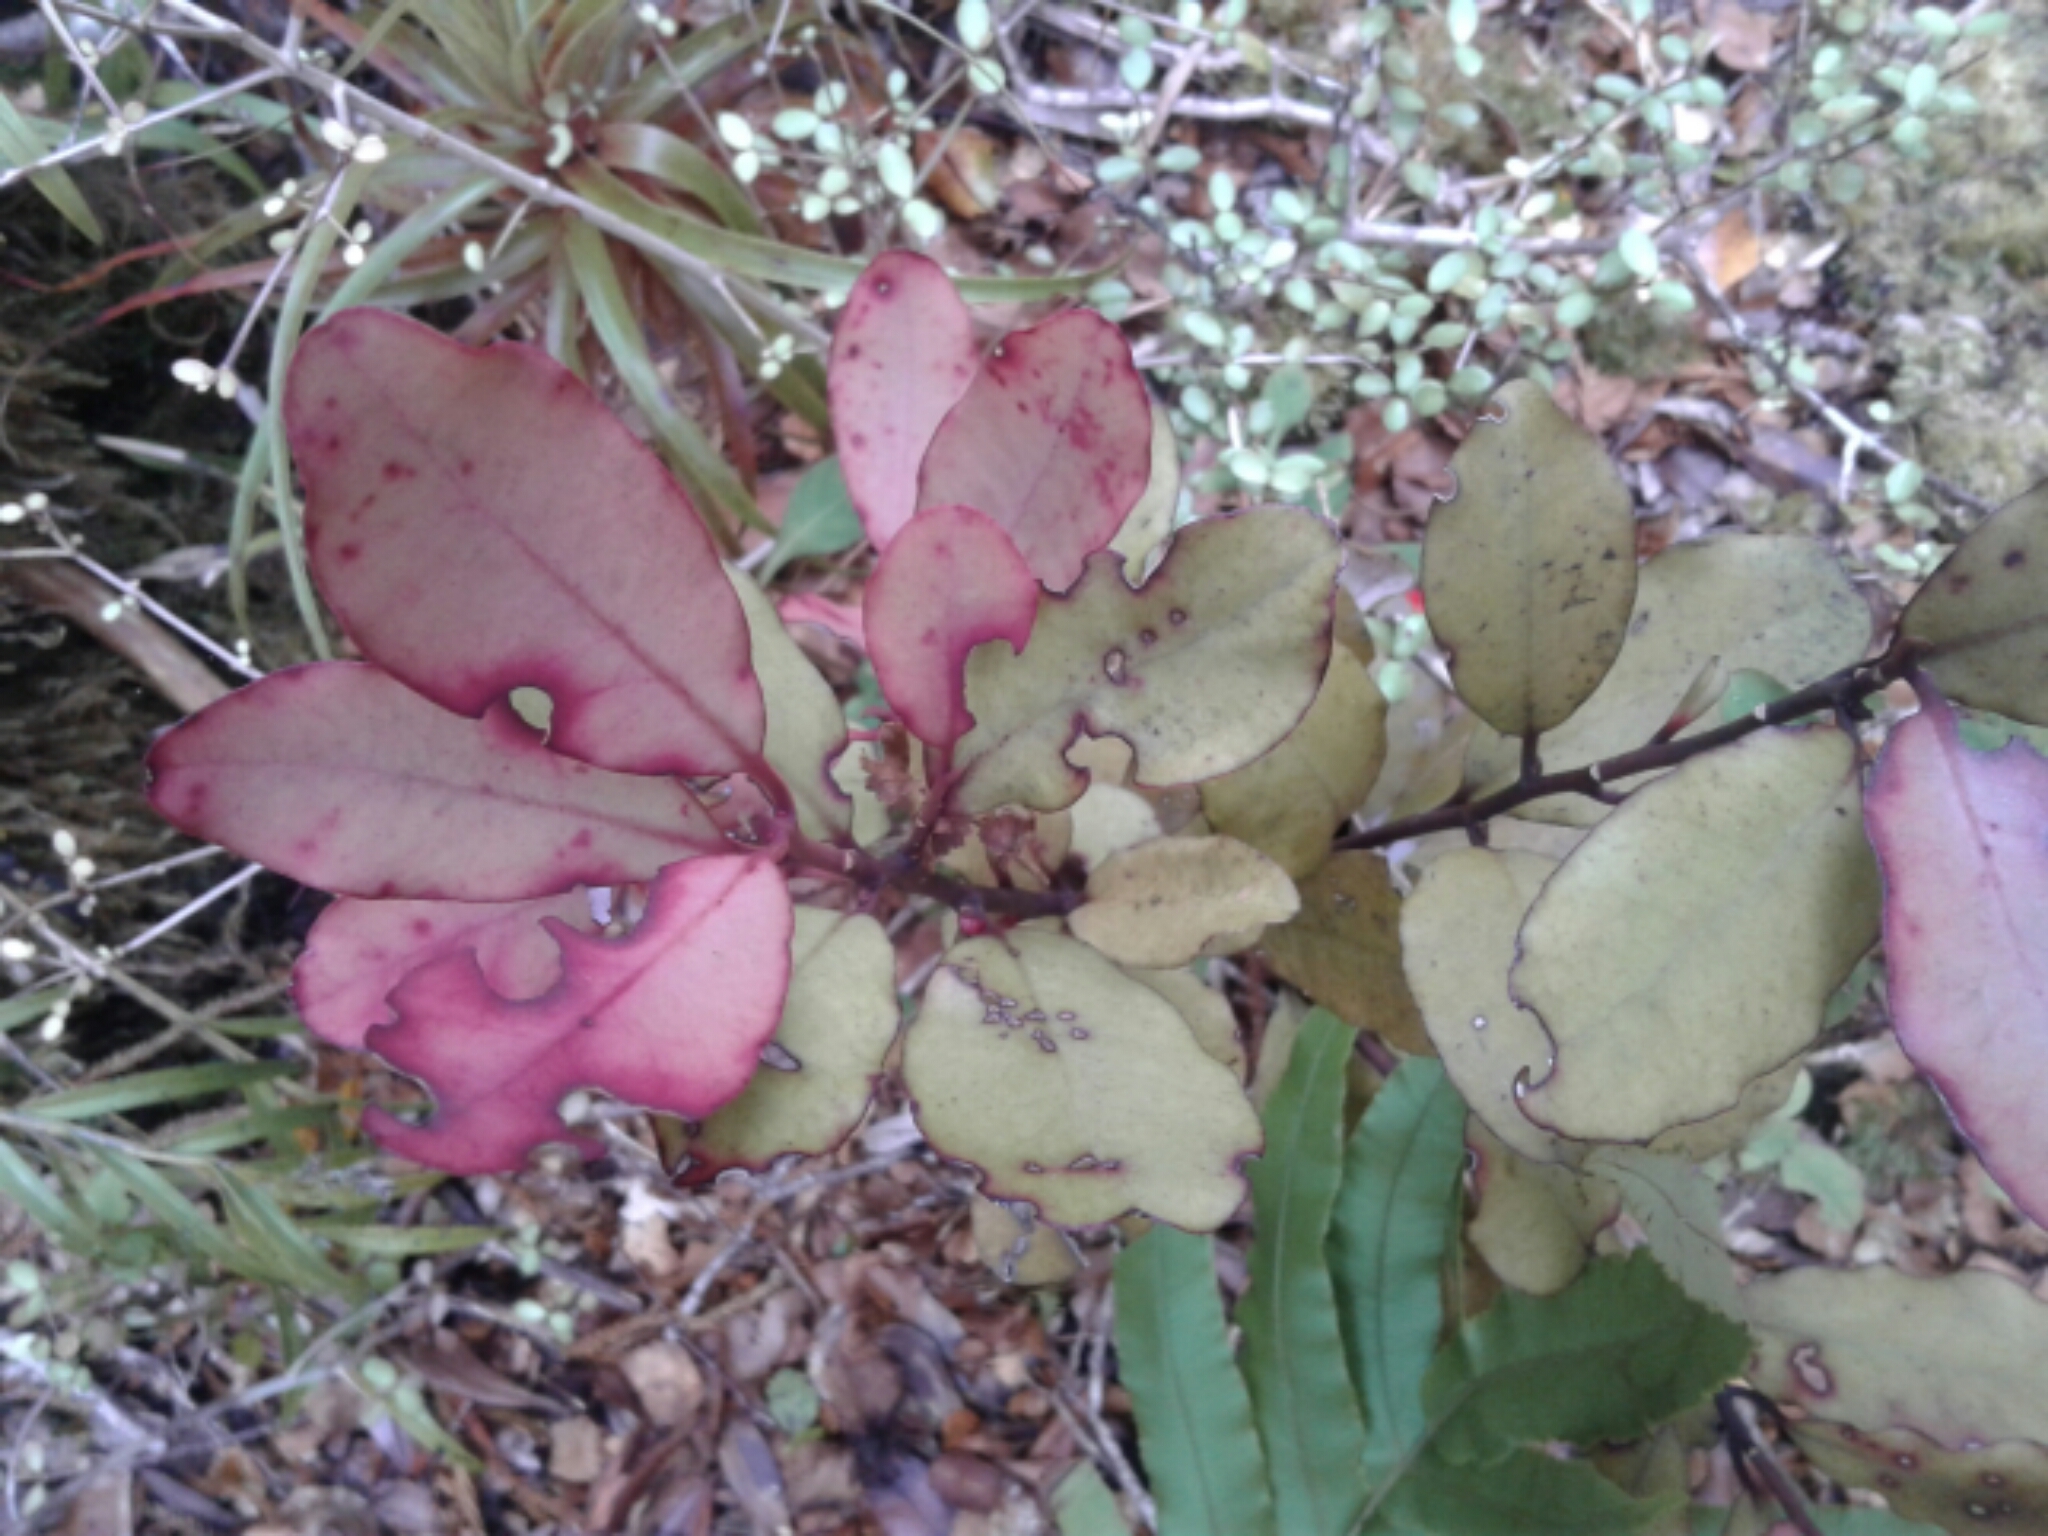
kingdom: Plantae
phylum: Tracheophyta
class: Magnoliopsida
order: Canellales
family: Winteraceae
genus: Pseudowintera
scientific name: Pseudowintera colorata
